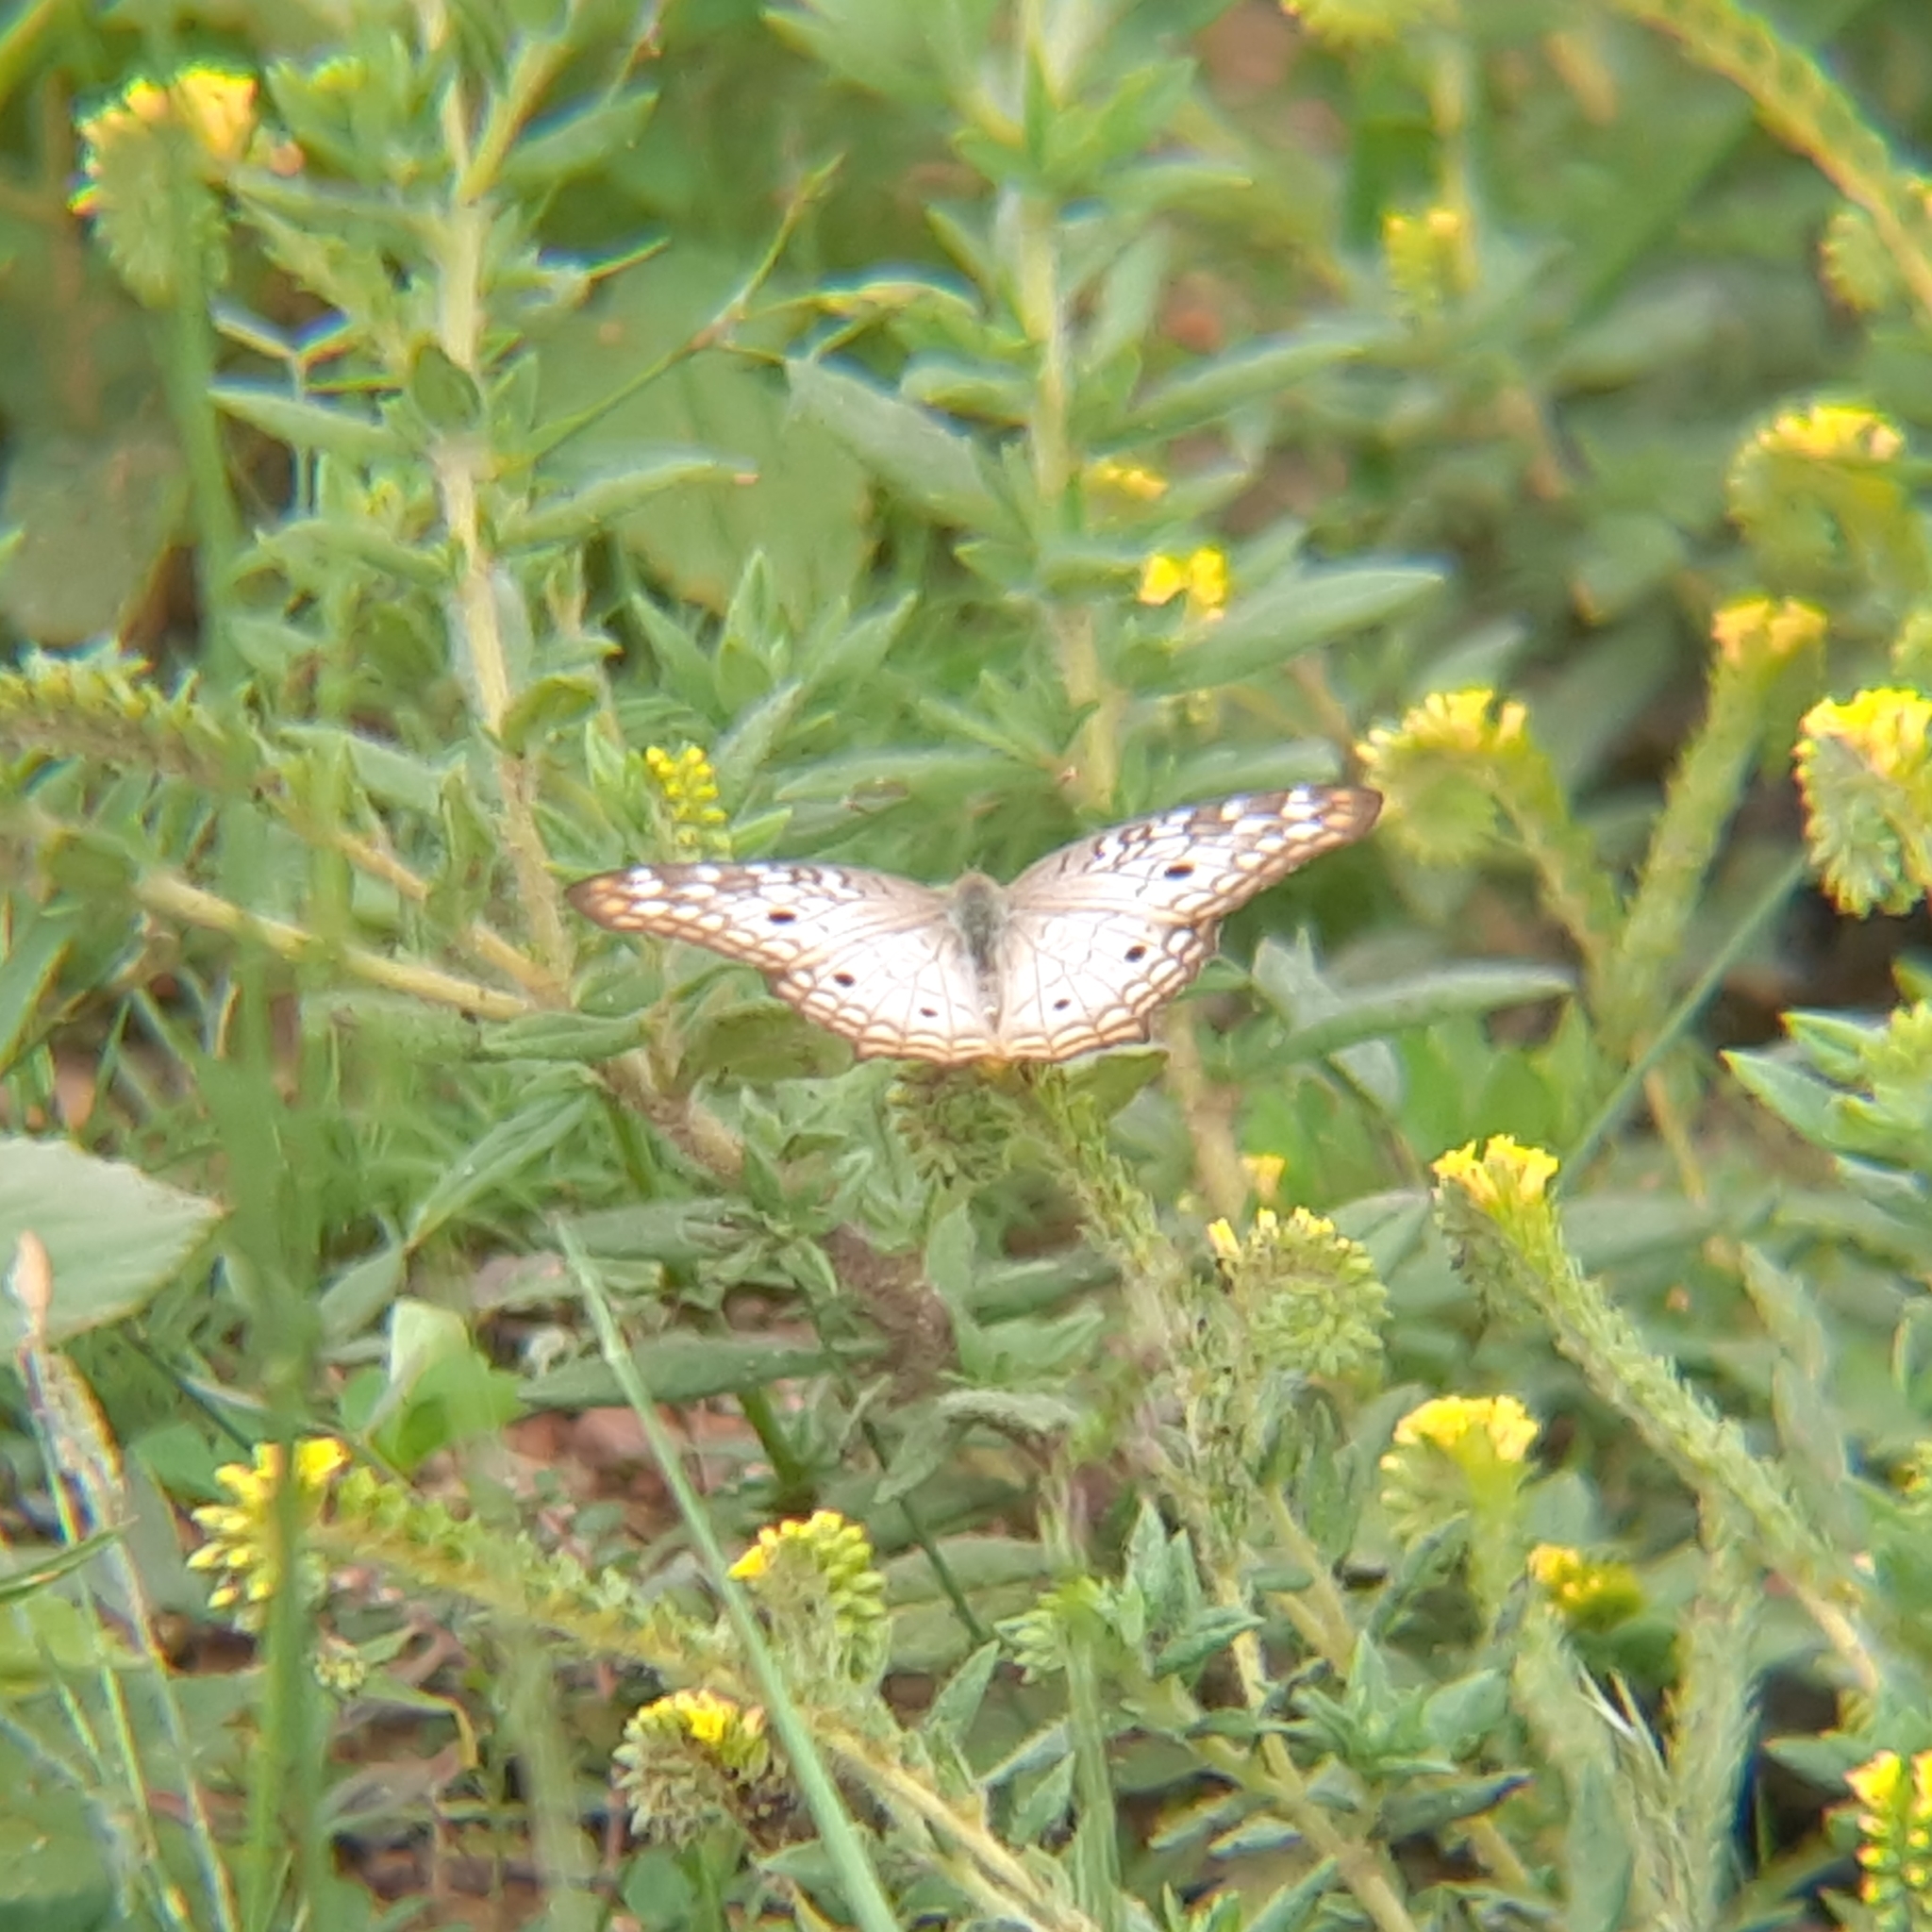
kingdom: Animalia
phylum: Arthropoda
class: Insecta
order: Lepidoptera
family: Nymphalidae
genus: Anartia
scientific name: Anartia jatrophae
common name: White peacock
